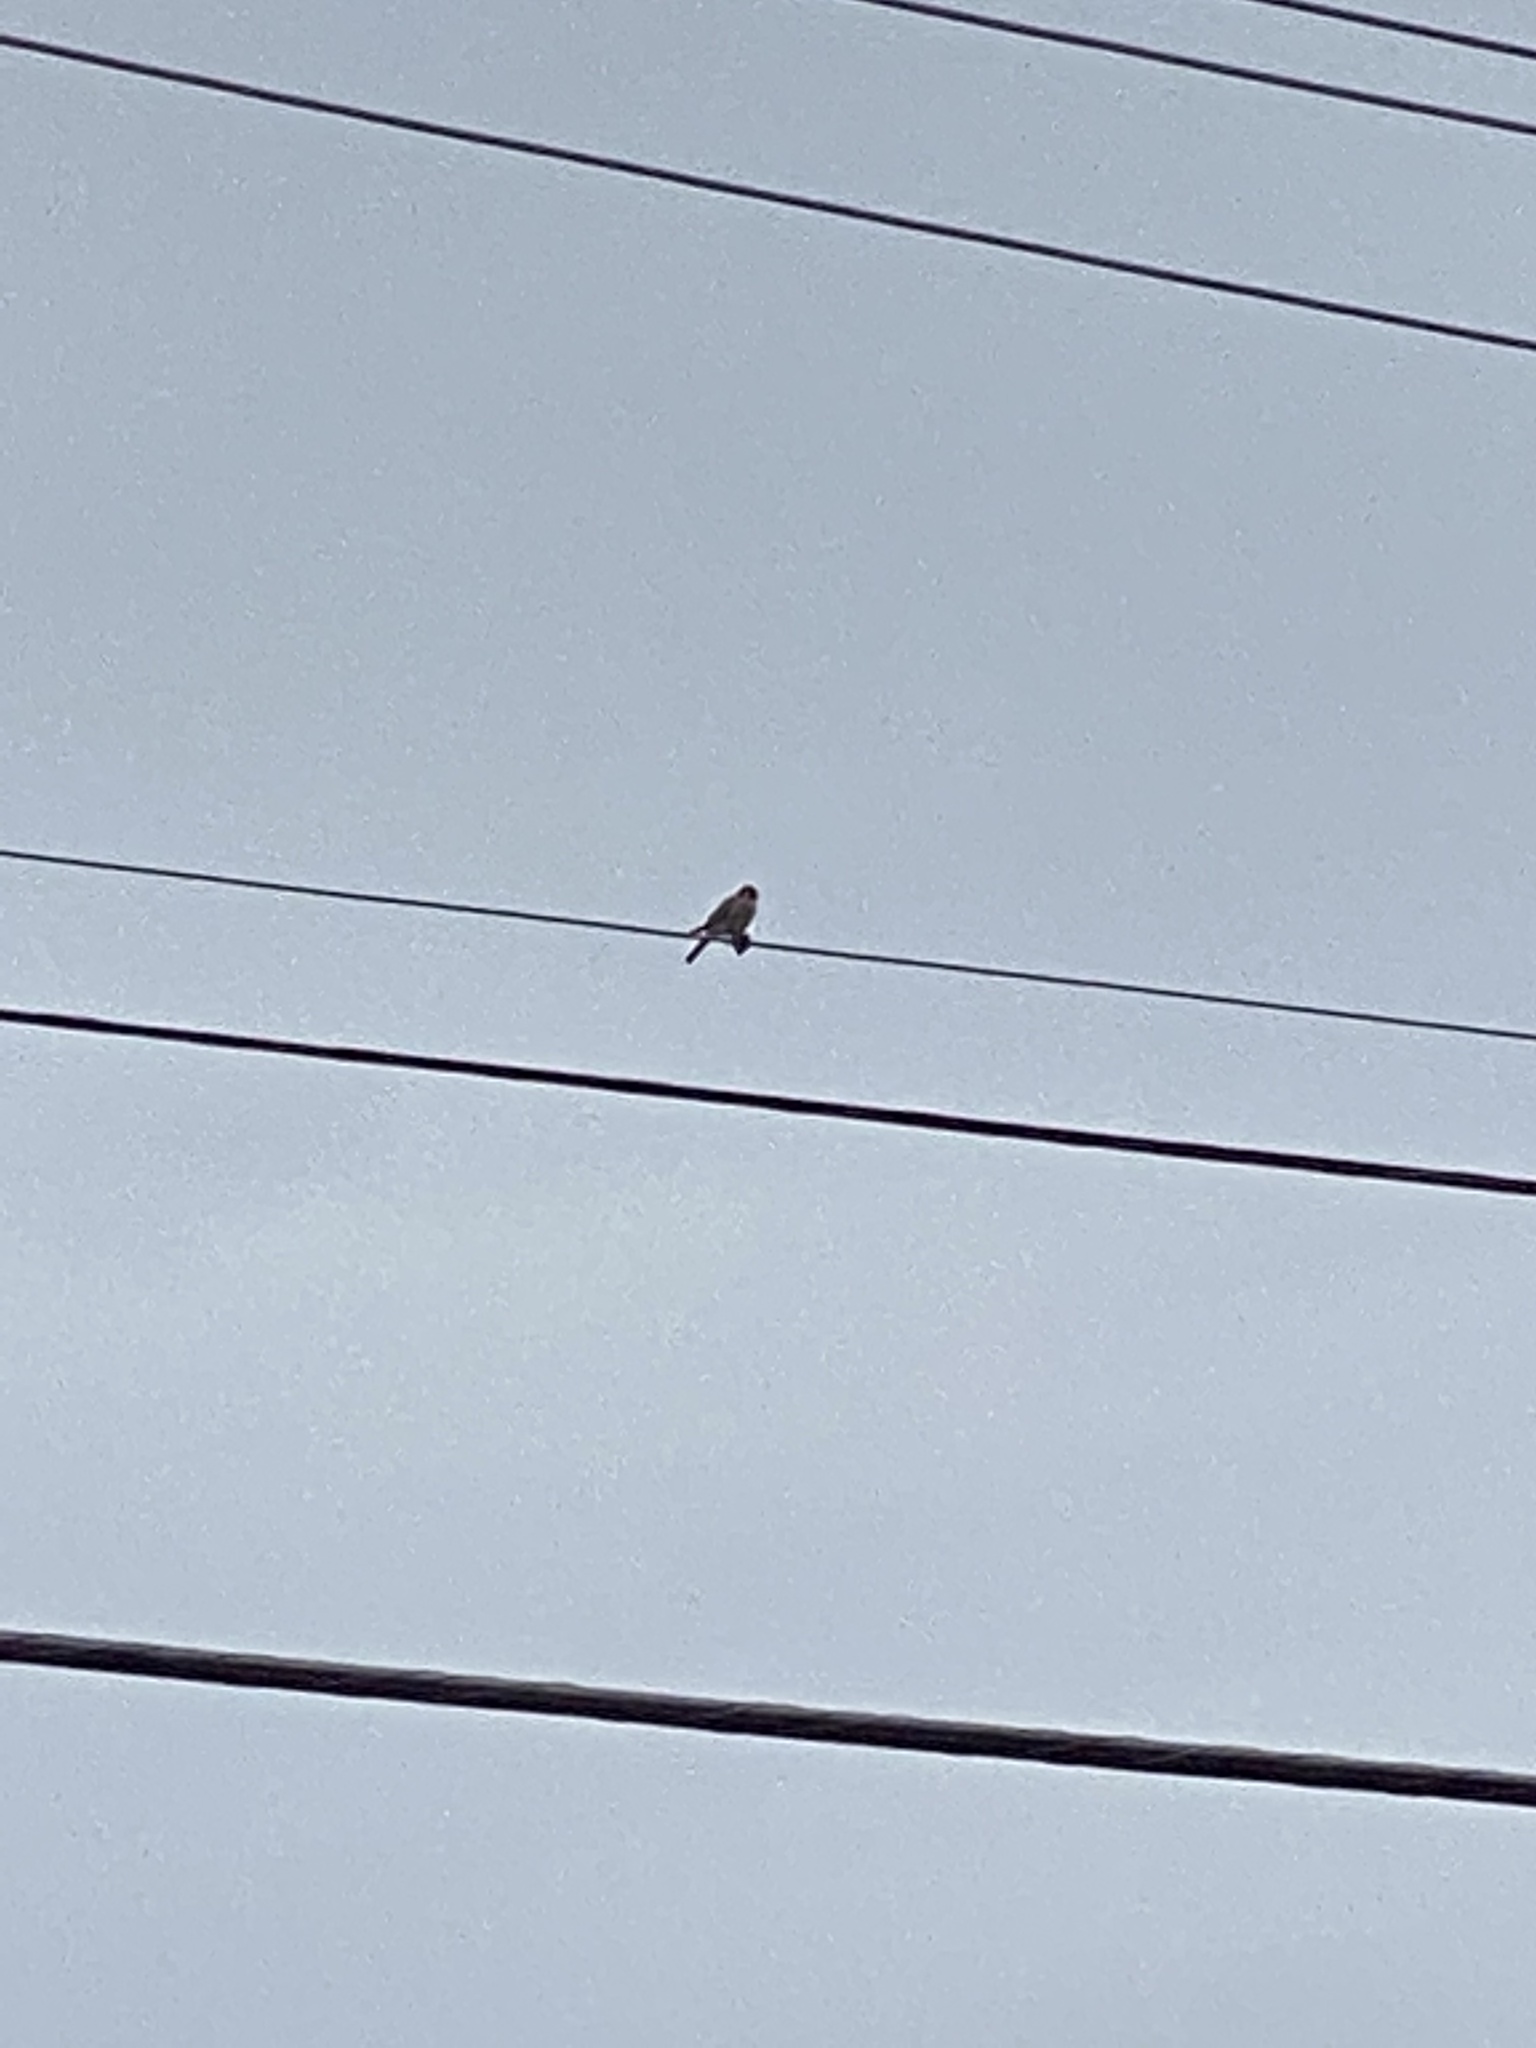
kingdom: Animalia
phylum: Chordata
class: Aves
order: Falconiformes
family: Falconidae
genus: Falco
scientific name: Falco sparverius
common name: American kestrel
